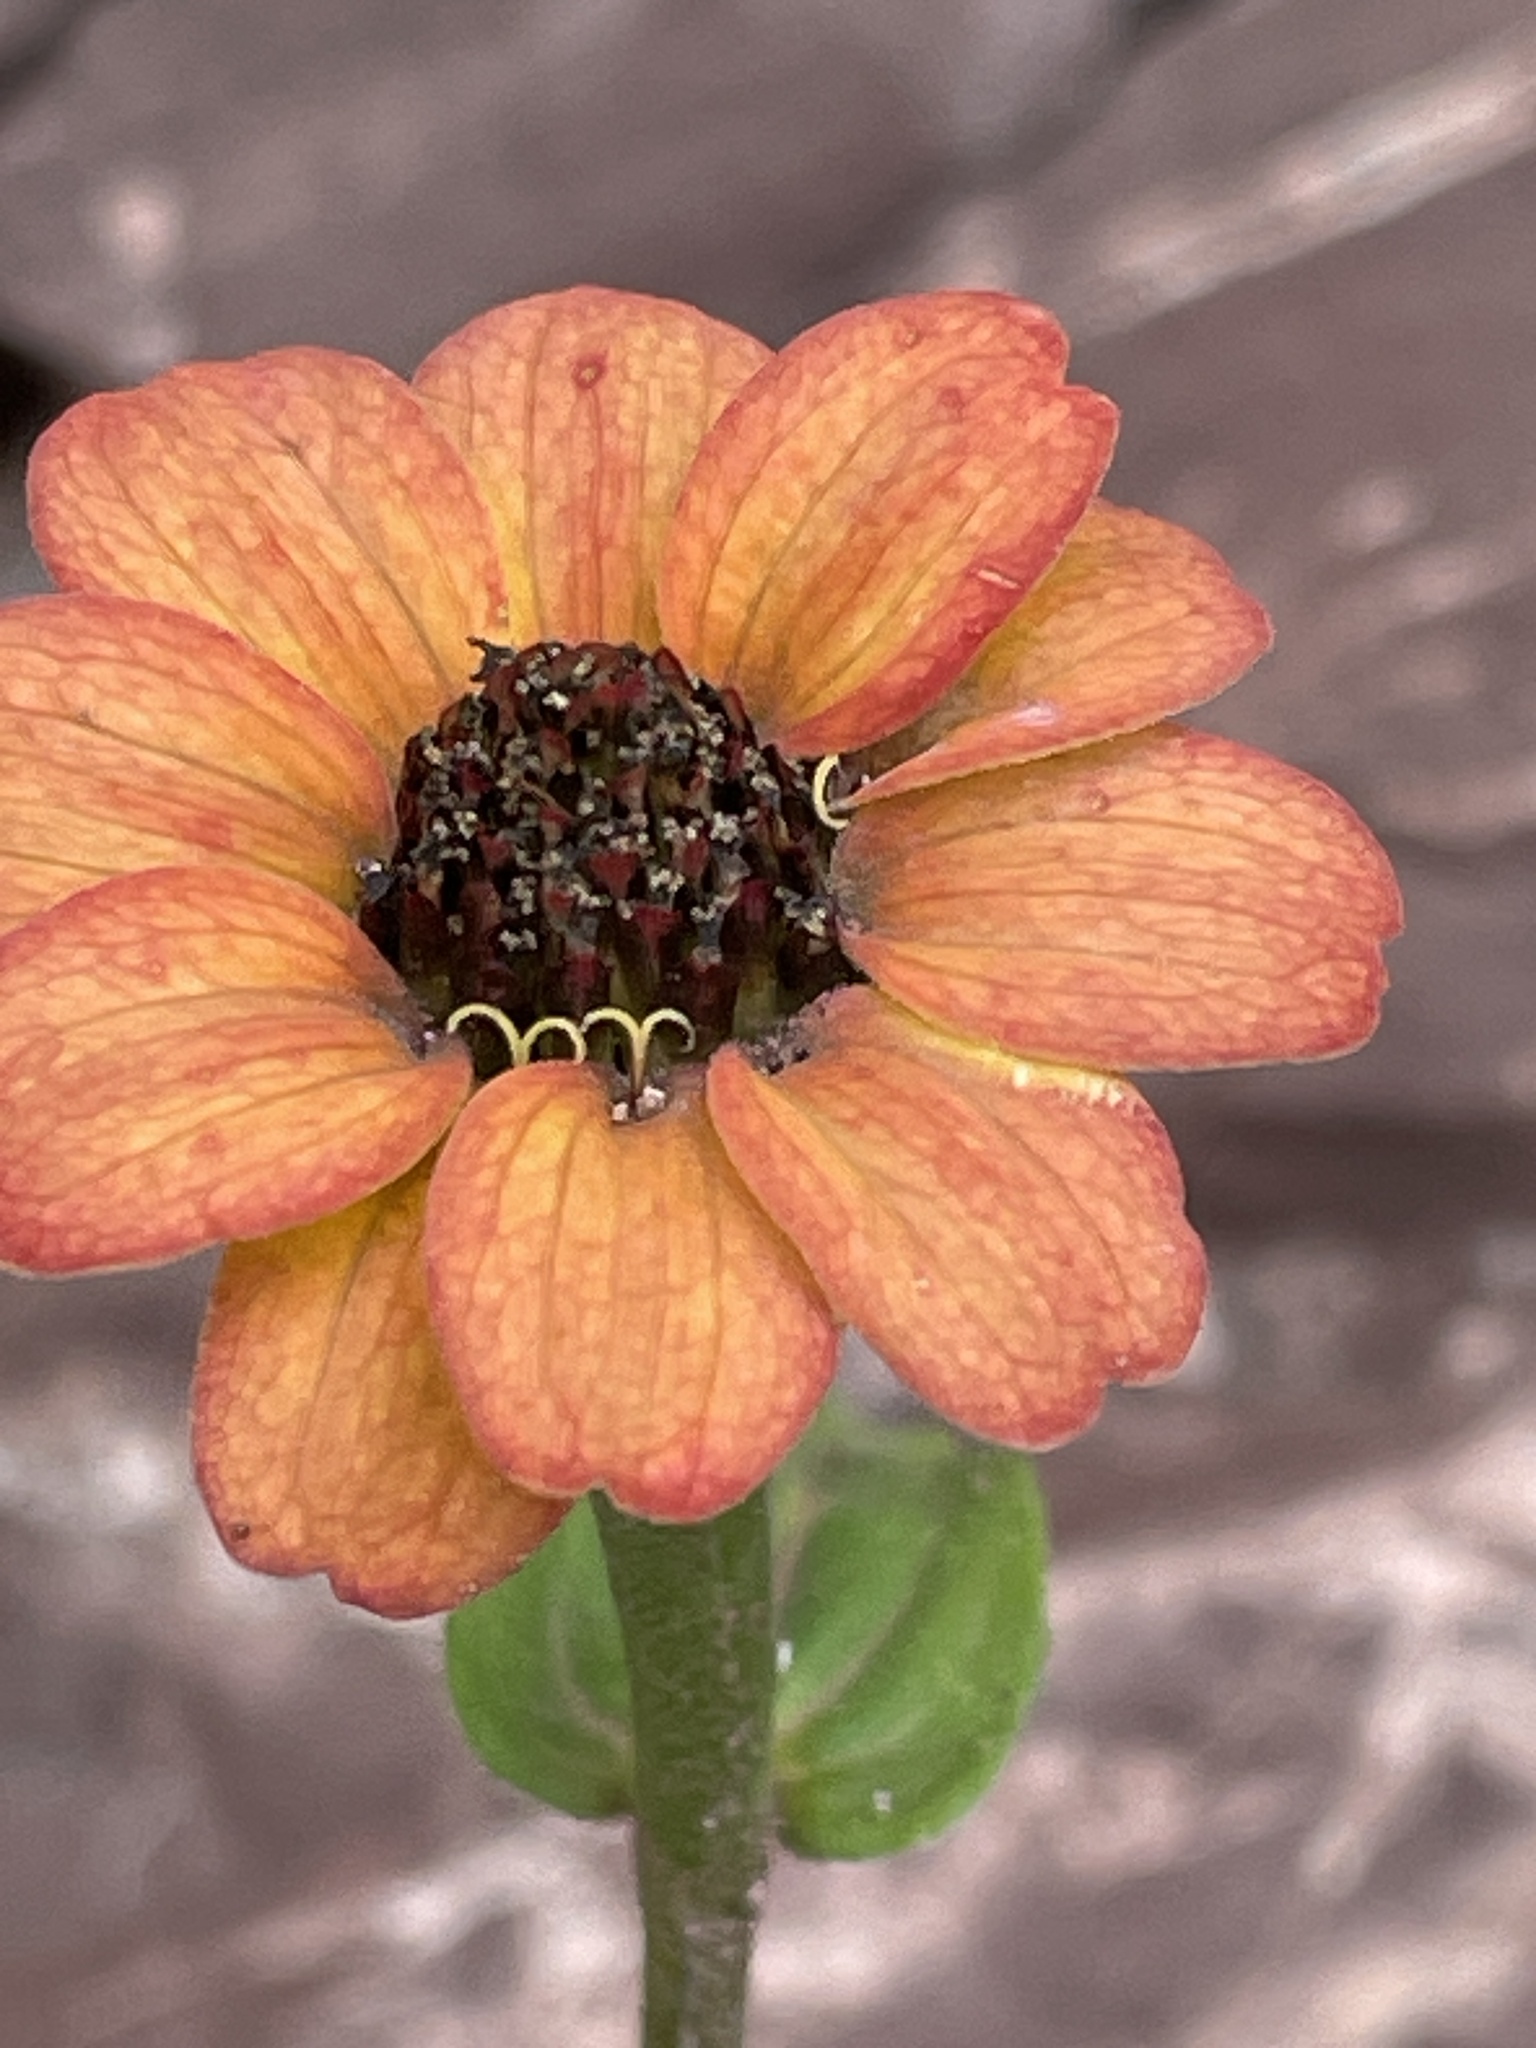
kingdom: Plantae
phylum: Tracheophyta
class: Magnoliopsida
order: Asterales
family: Asteraceae
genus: Zinnia
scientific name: Zinnia peruviana
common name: Peruvian zinnia
